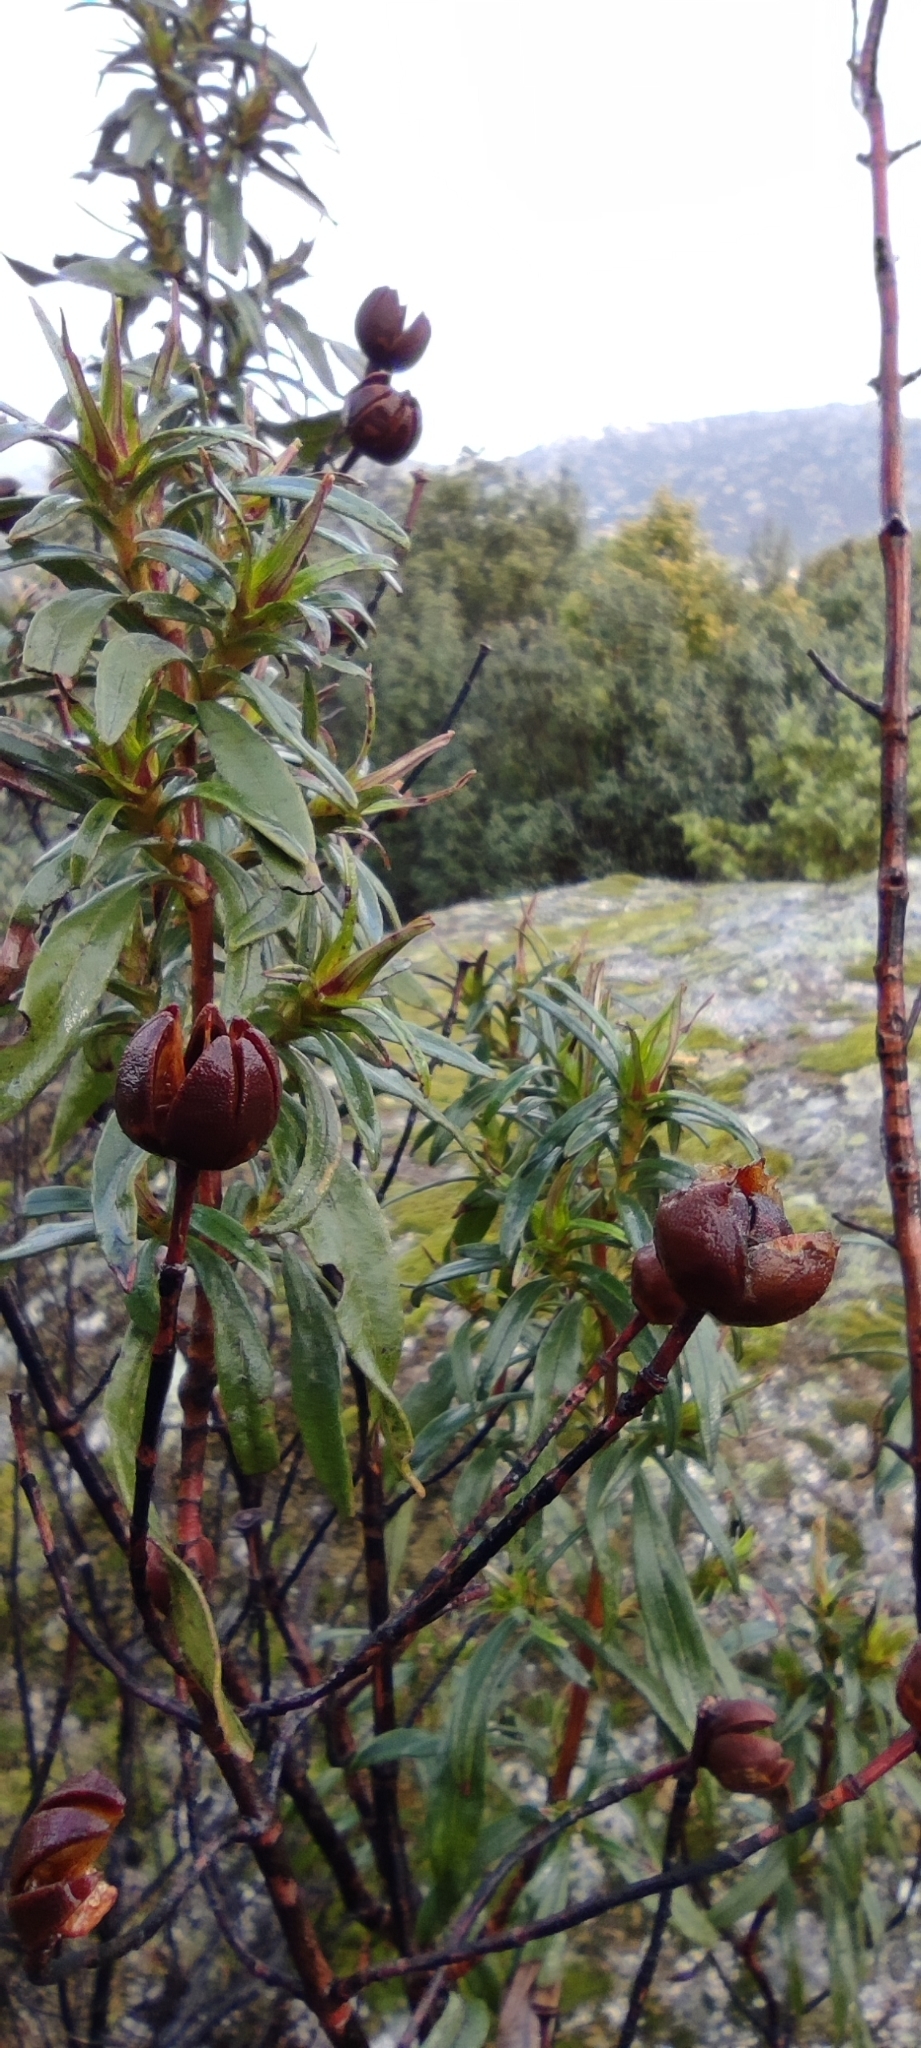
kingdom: Plantae
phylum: Tracheophyta
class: Magnoliopsida
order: Malvales
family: Cistaceae
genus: Cistus
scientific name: Cistus ladanifer
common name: Common gum cistus
